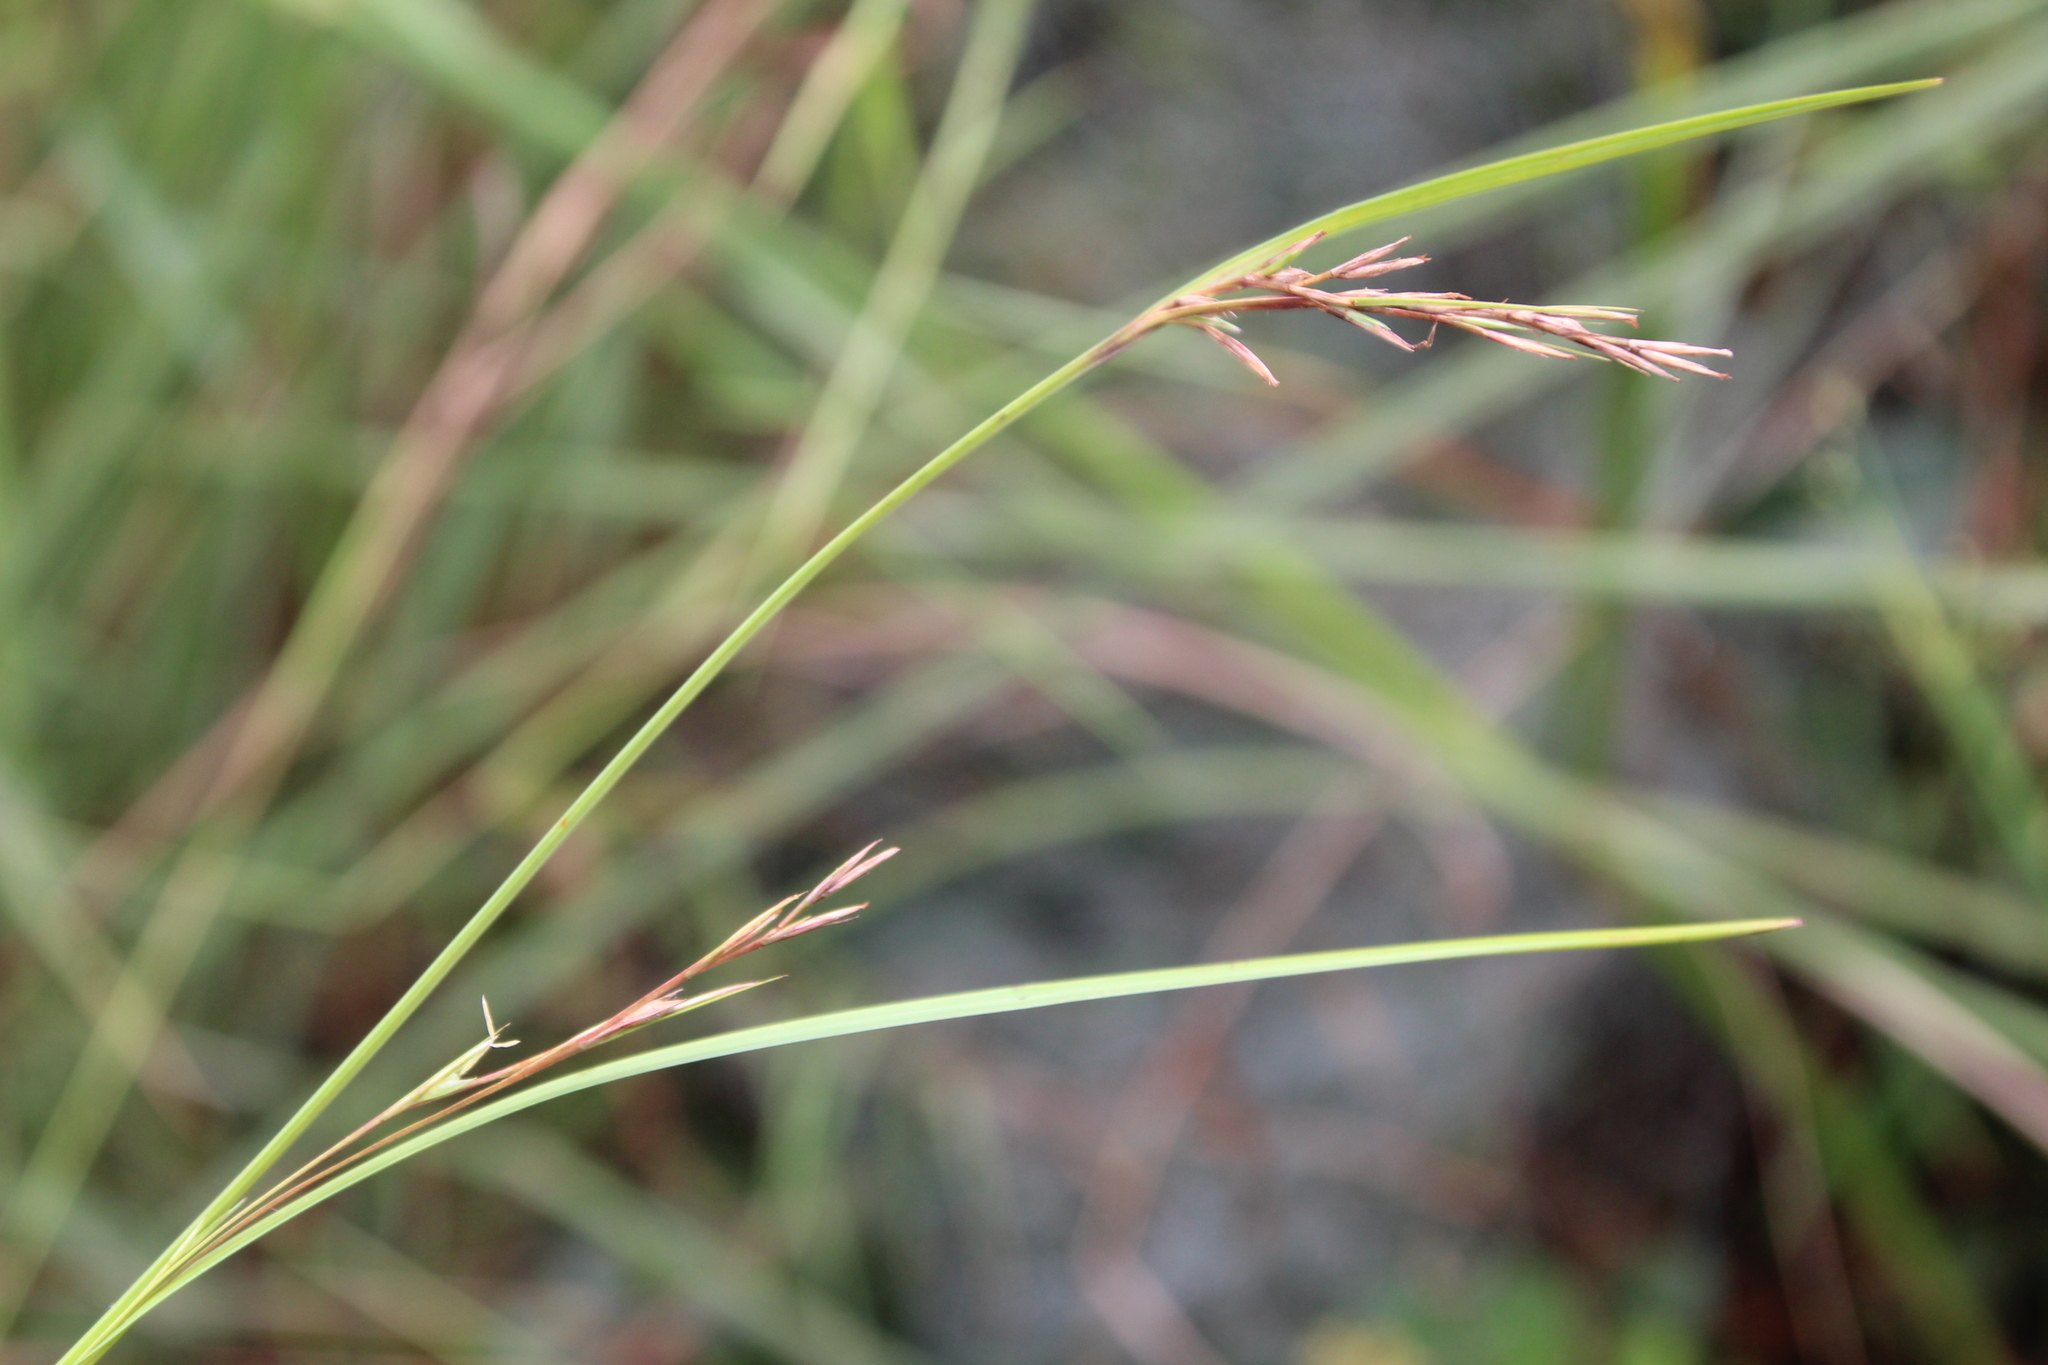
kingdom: Plantae
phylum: Tracheophyta
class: Liliopsida
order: Poales
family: Cyperaceae
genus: Scleria
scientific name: Scleria nyasensis
